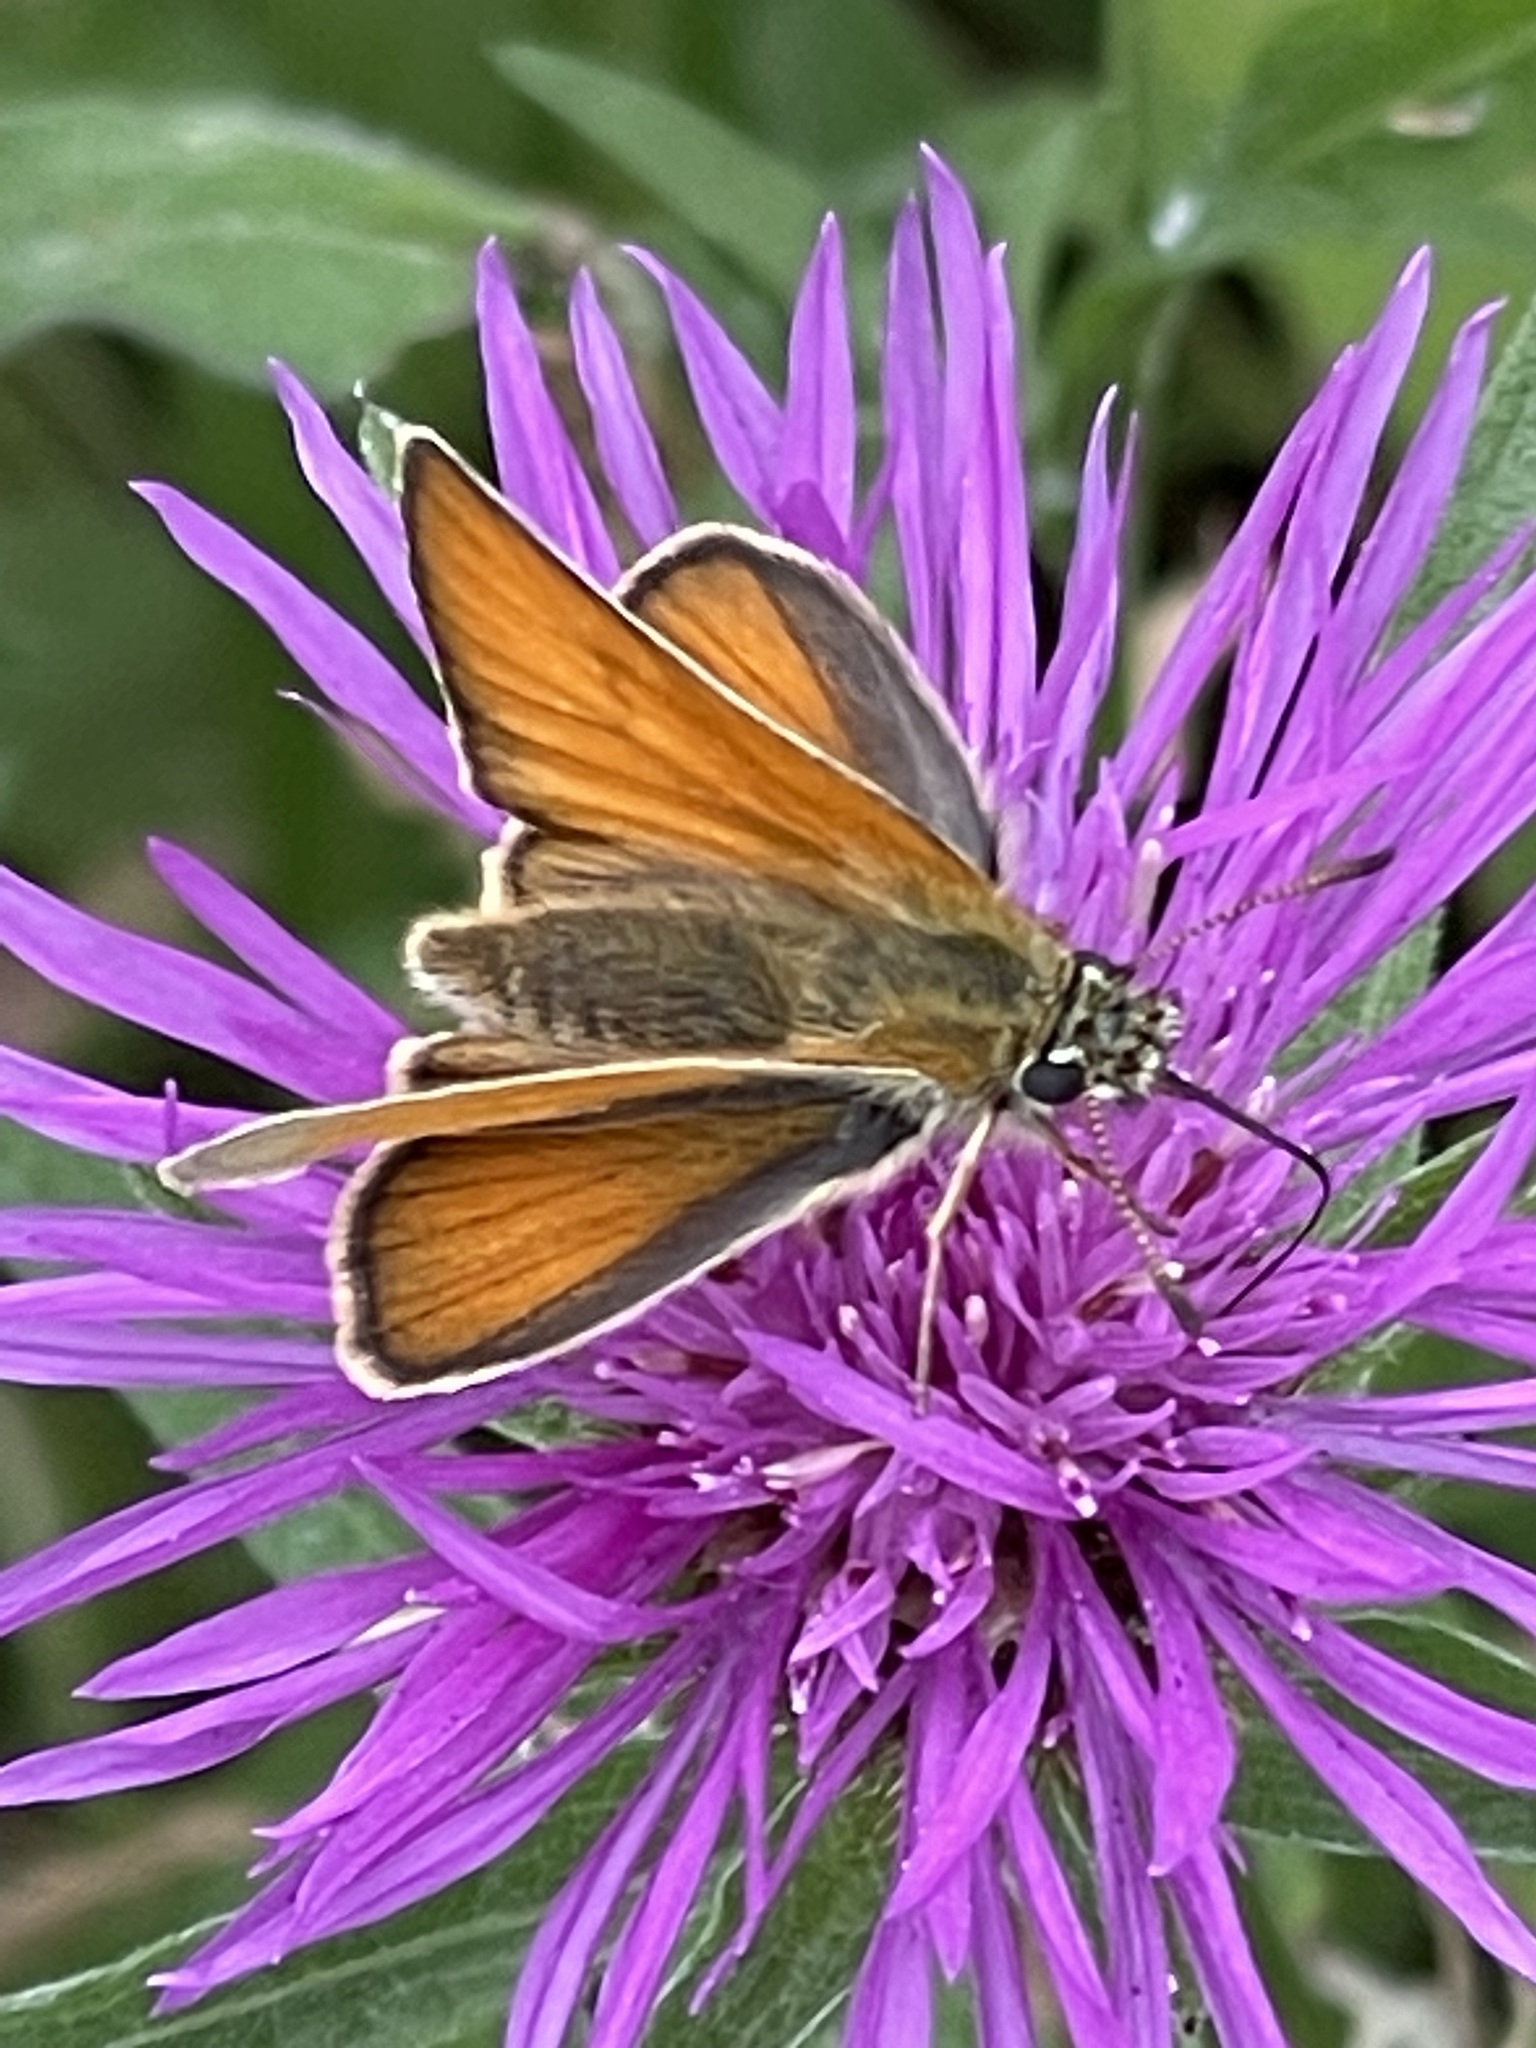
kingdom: Animalia
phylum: Arthropoda
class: Insecta
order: Lepidoptera
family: Hesperiidae
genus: Thymelicus
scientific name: Thymelicus lineola
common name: Essex skipper
